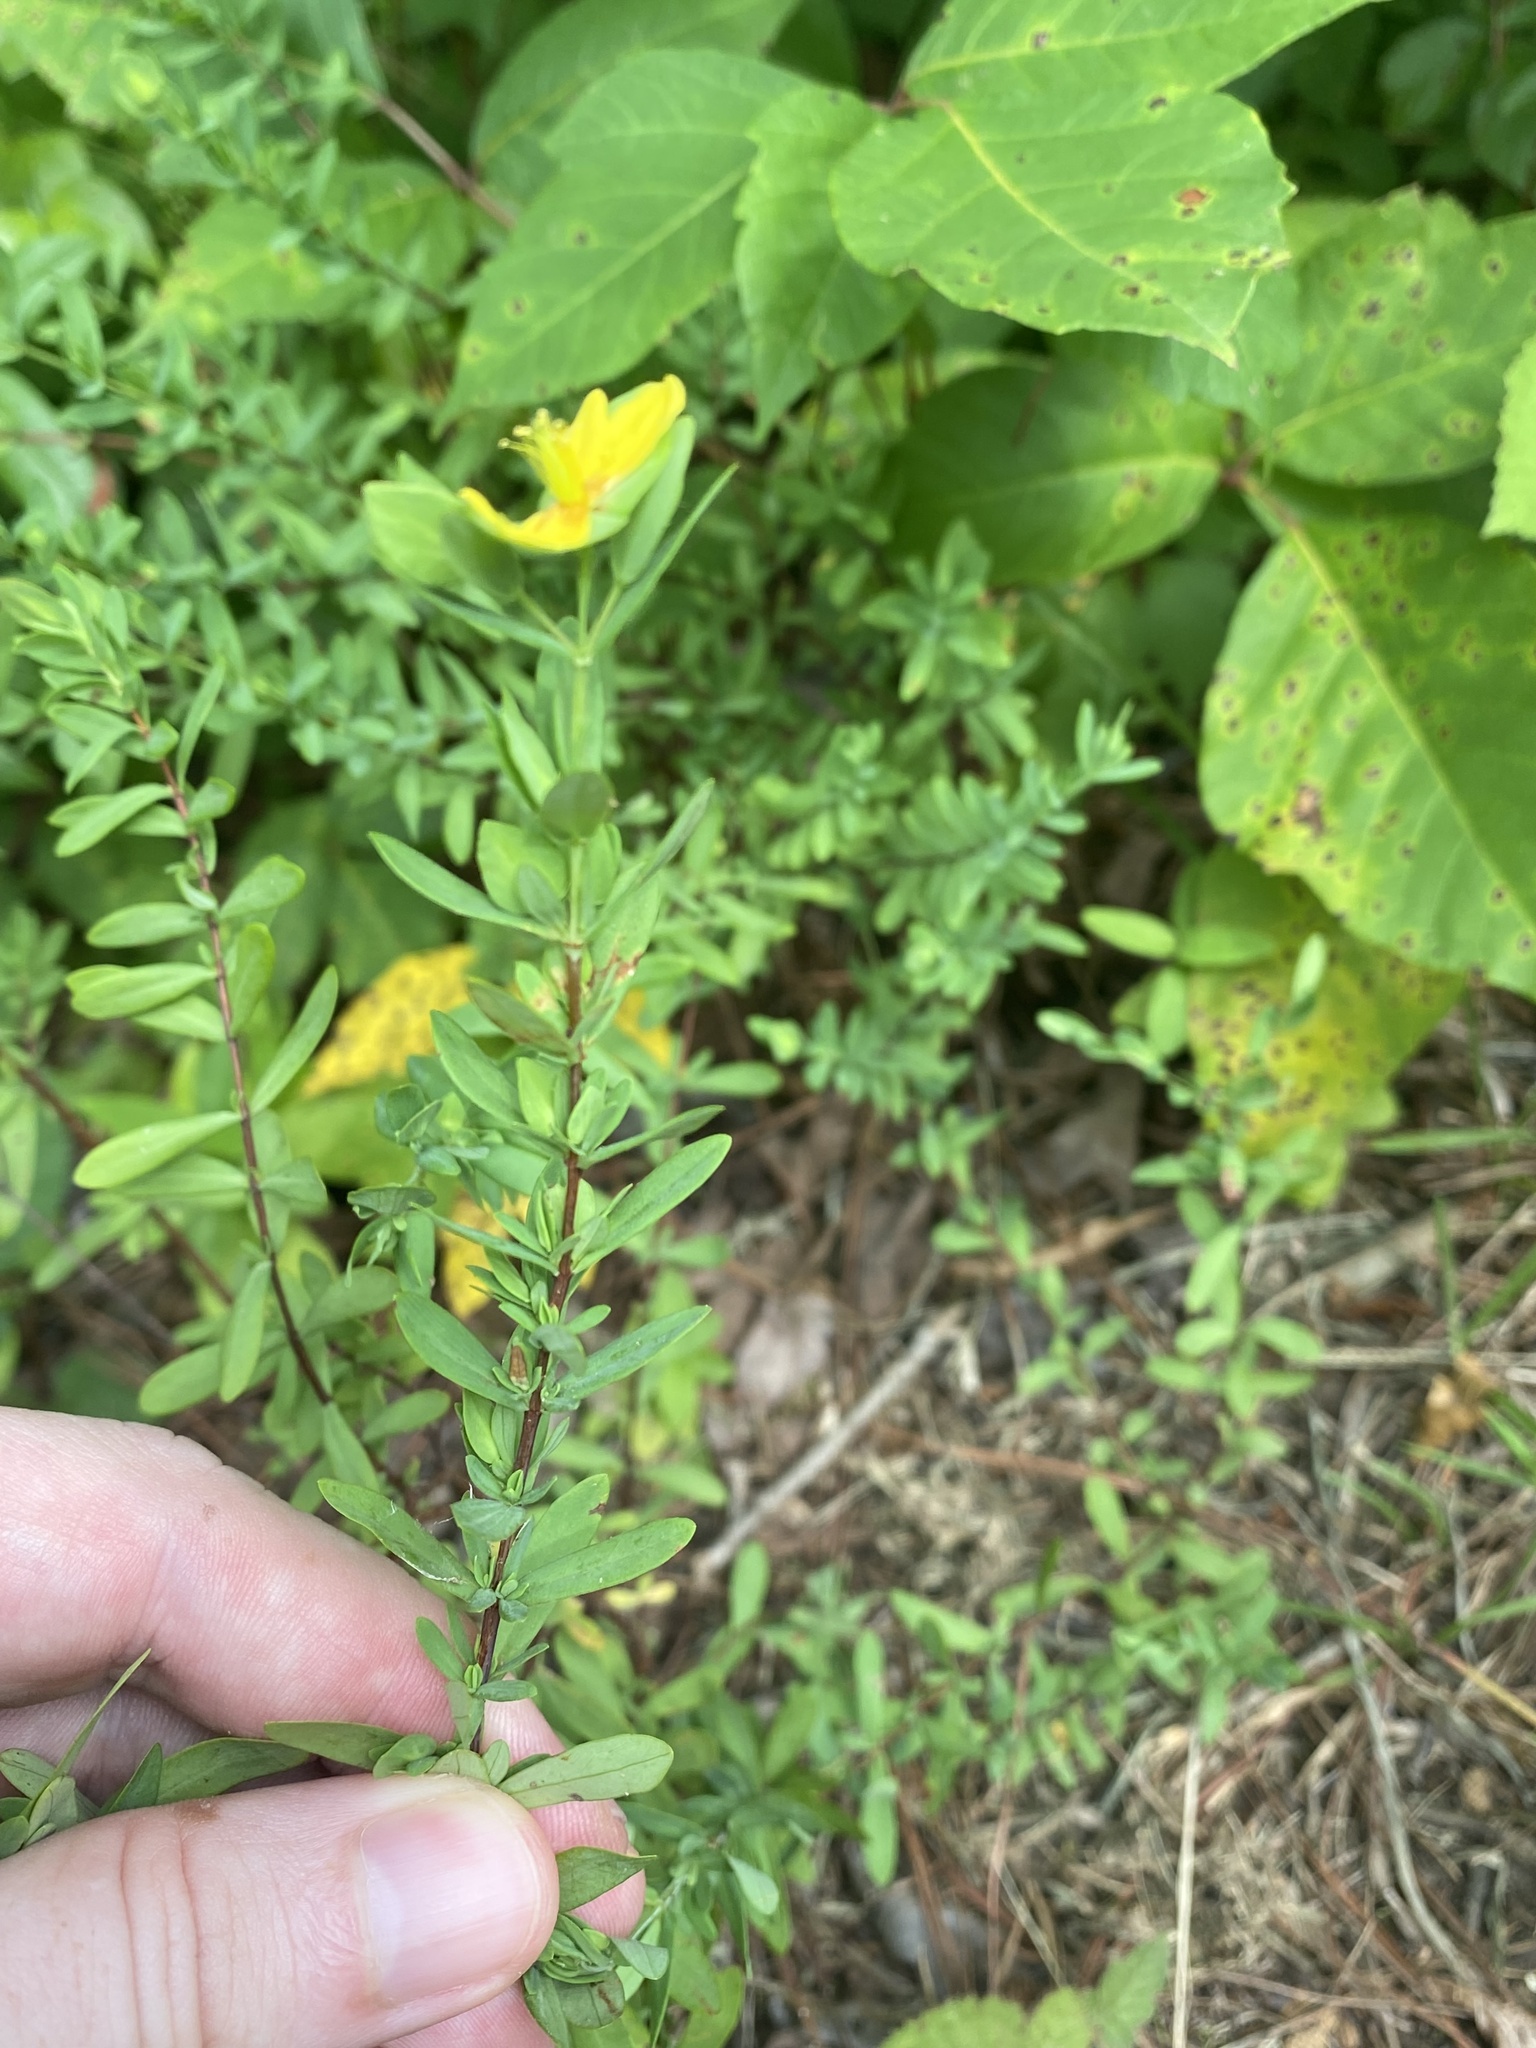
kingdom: Plantae
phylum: Tracheophyta
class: Magnoliopsida
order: Malpighiales
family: Hypericaceae
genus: Hypericum
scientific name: Hypericum hypericoides
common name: St. andrew's cross
